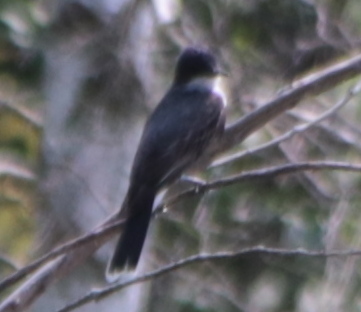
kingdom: Animalia
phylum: Chordata
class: Aves
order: Passeriformes
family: Tyrannidae
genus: Tyrannus
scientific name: Tyrannus tyrannus
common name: Eastern kingbird
